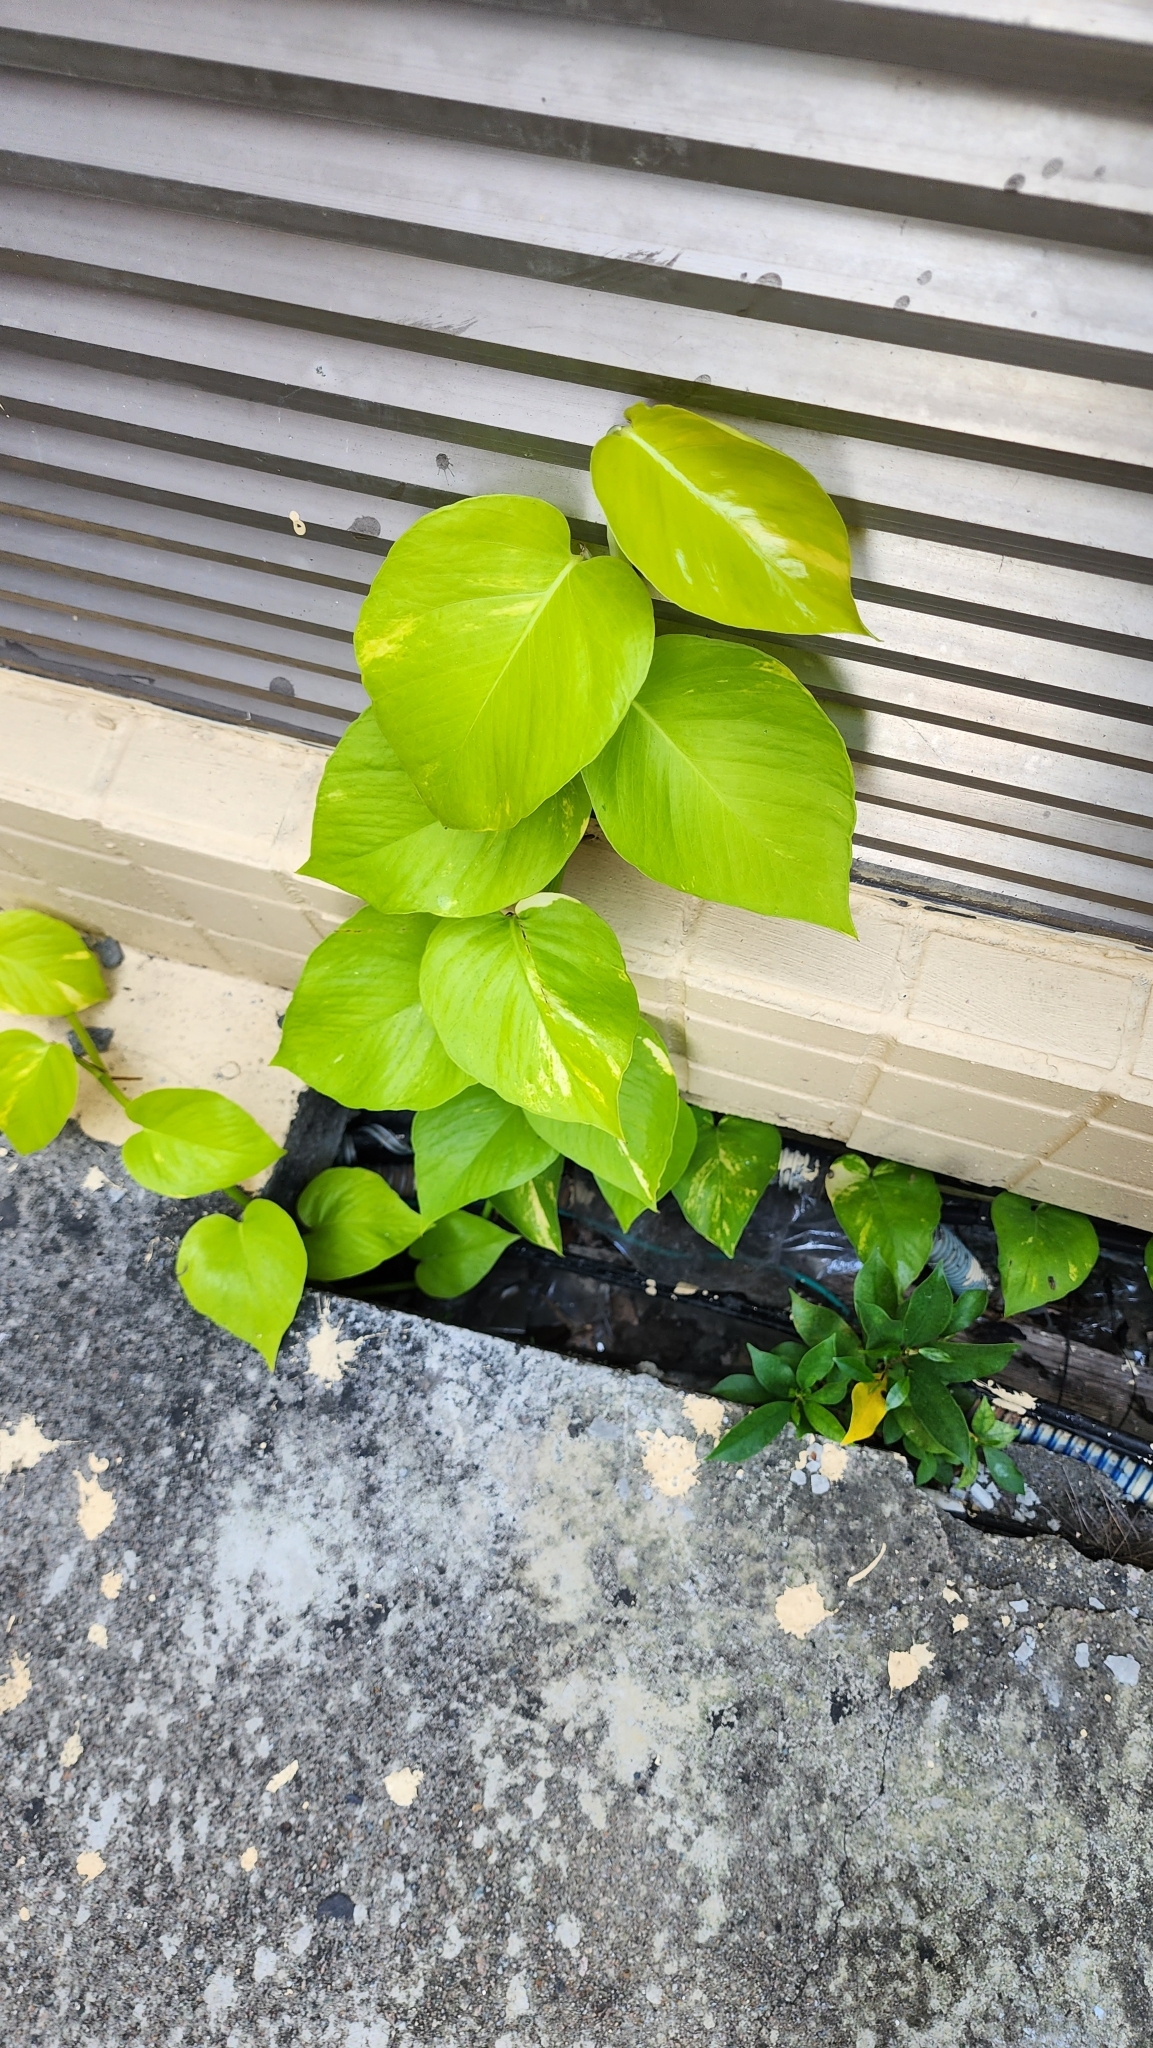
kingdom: Plantae
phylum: Tracheophyta
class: Liliopsida
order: Alismatales
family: Araceae
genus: Epipremnum
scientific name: Epipremnum aureum
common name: Golden hunter's-robe
